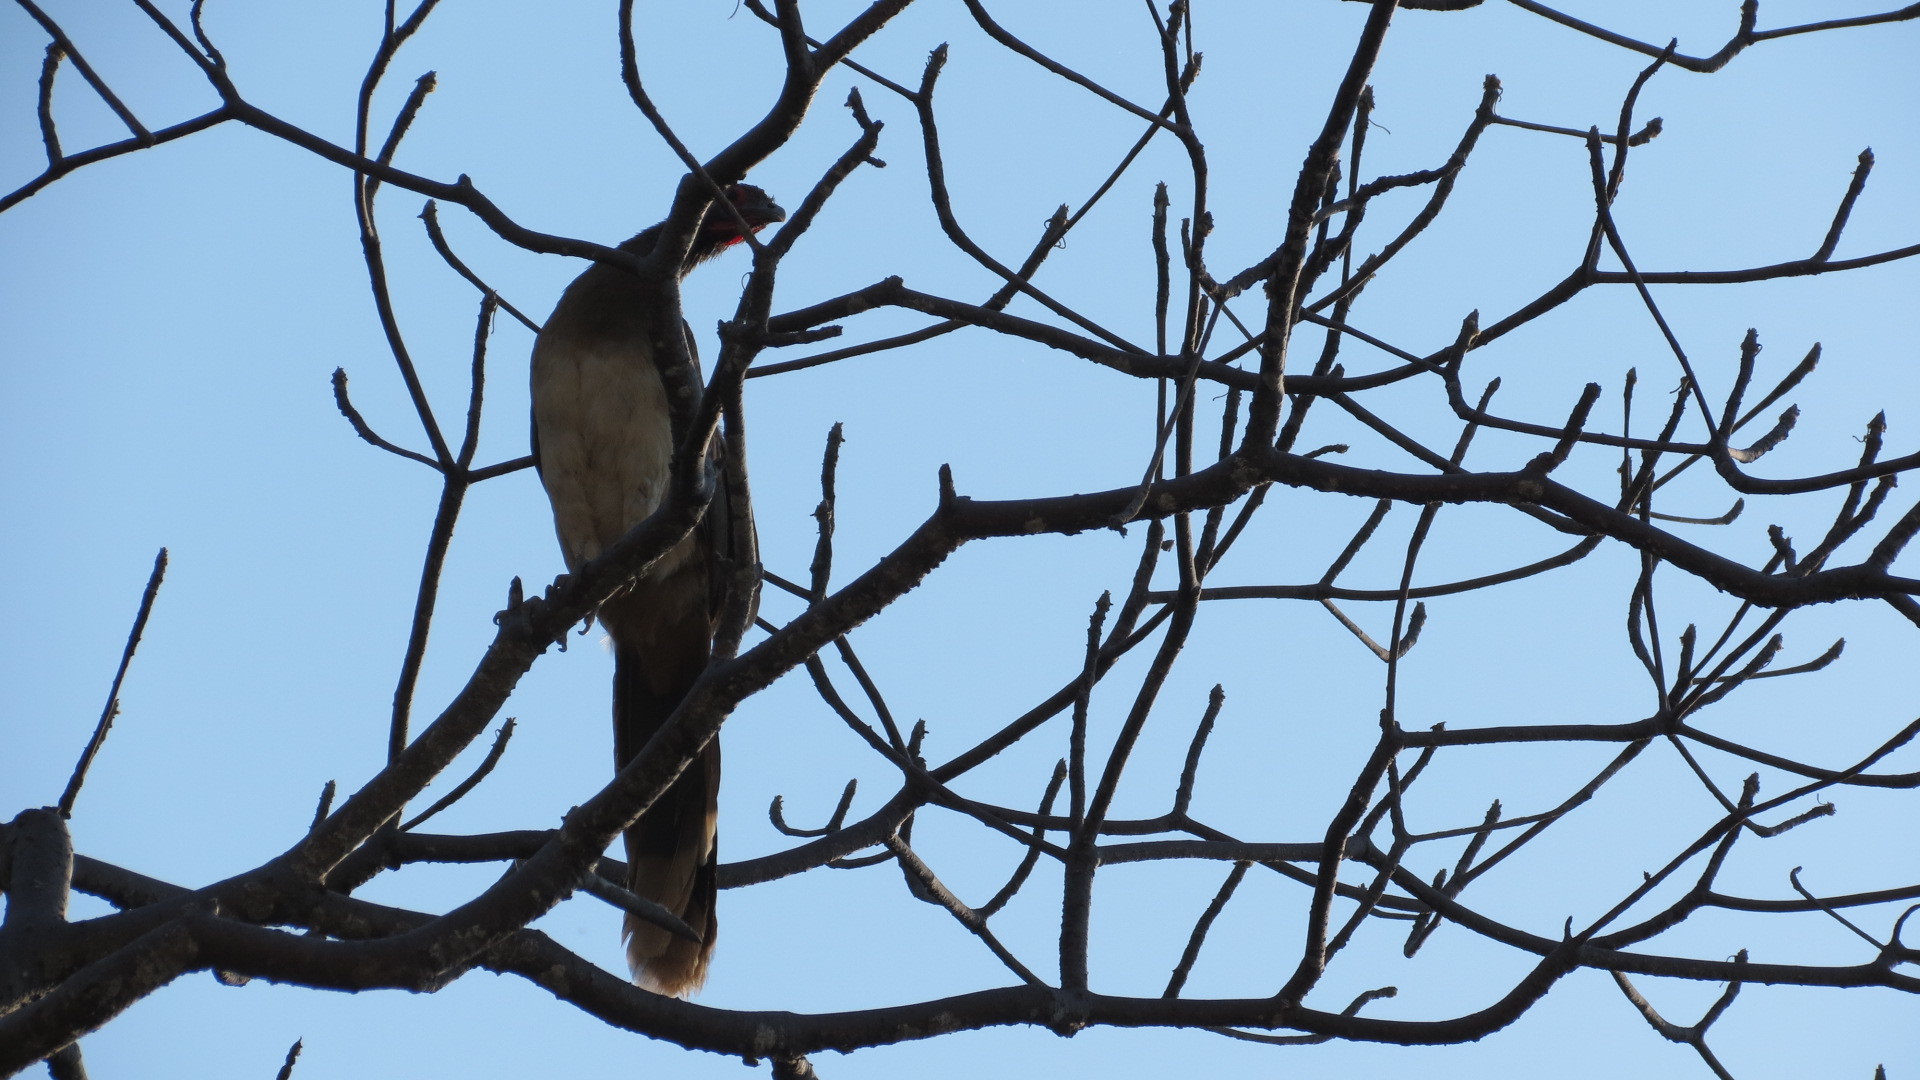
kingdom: Animalia
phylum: Chordata
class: Aves
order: Galliformes
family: Cracidae
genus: Ortalis
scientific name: Ortalis poliocephala
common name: West mexican chachalaca
